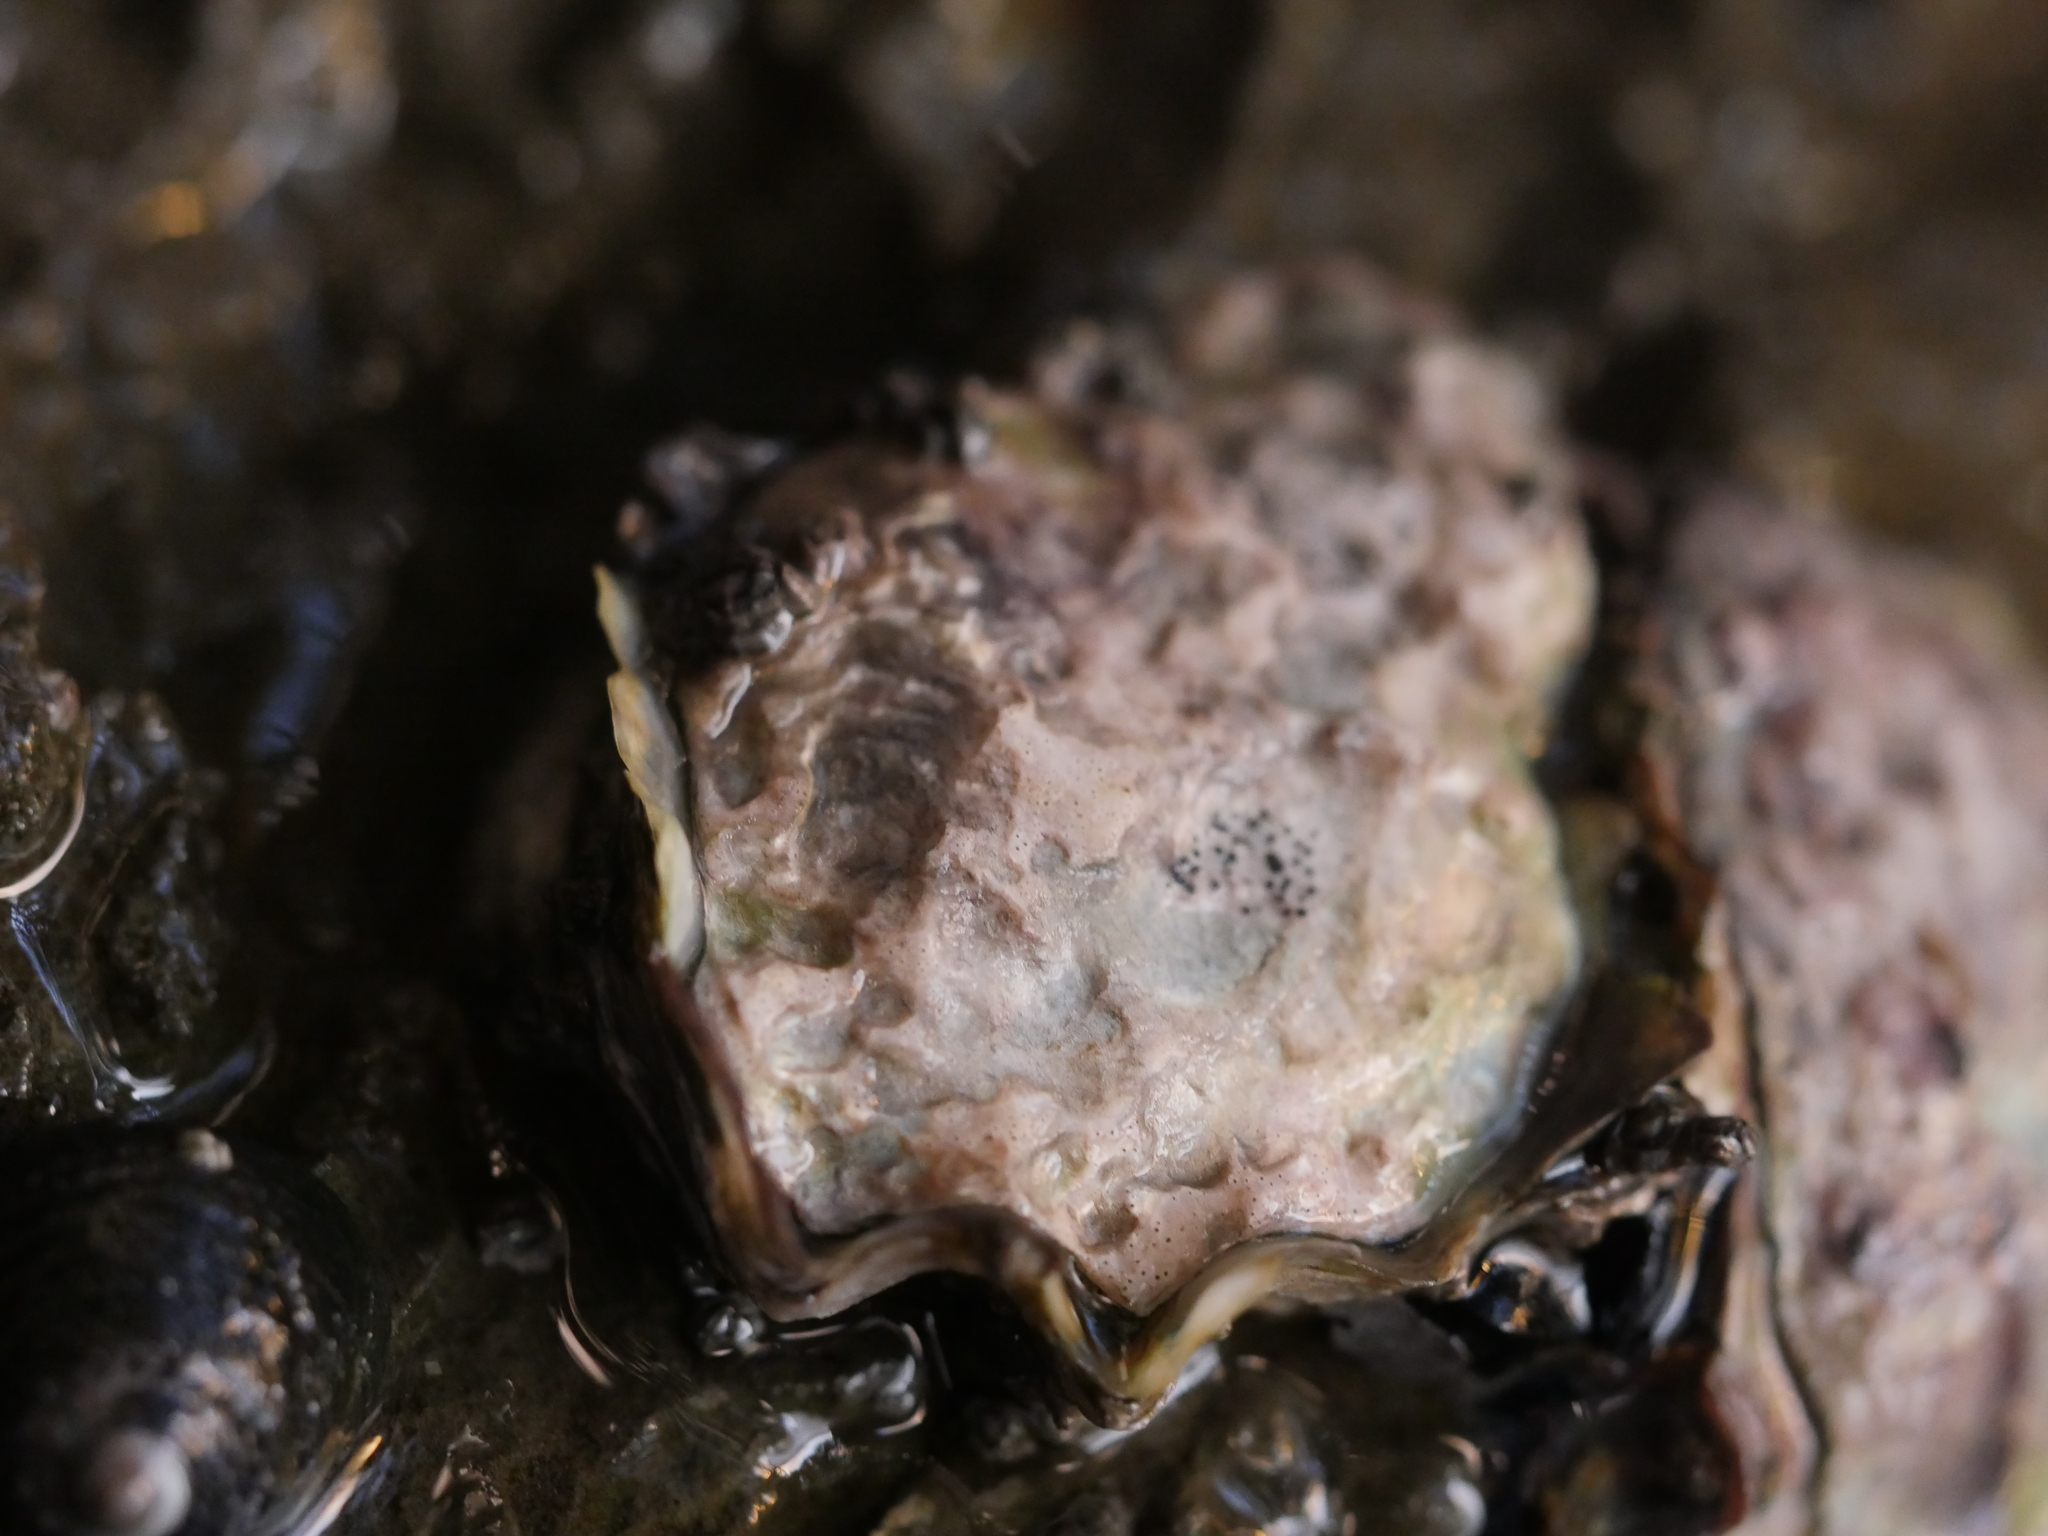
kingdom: Animalia
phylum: Mollusca
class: Bivalvia
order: Ostreida
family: Ostreidae
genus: Saccostrea
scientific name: Saccostrea glomerata
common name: Sydney cupped oyster
